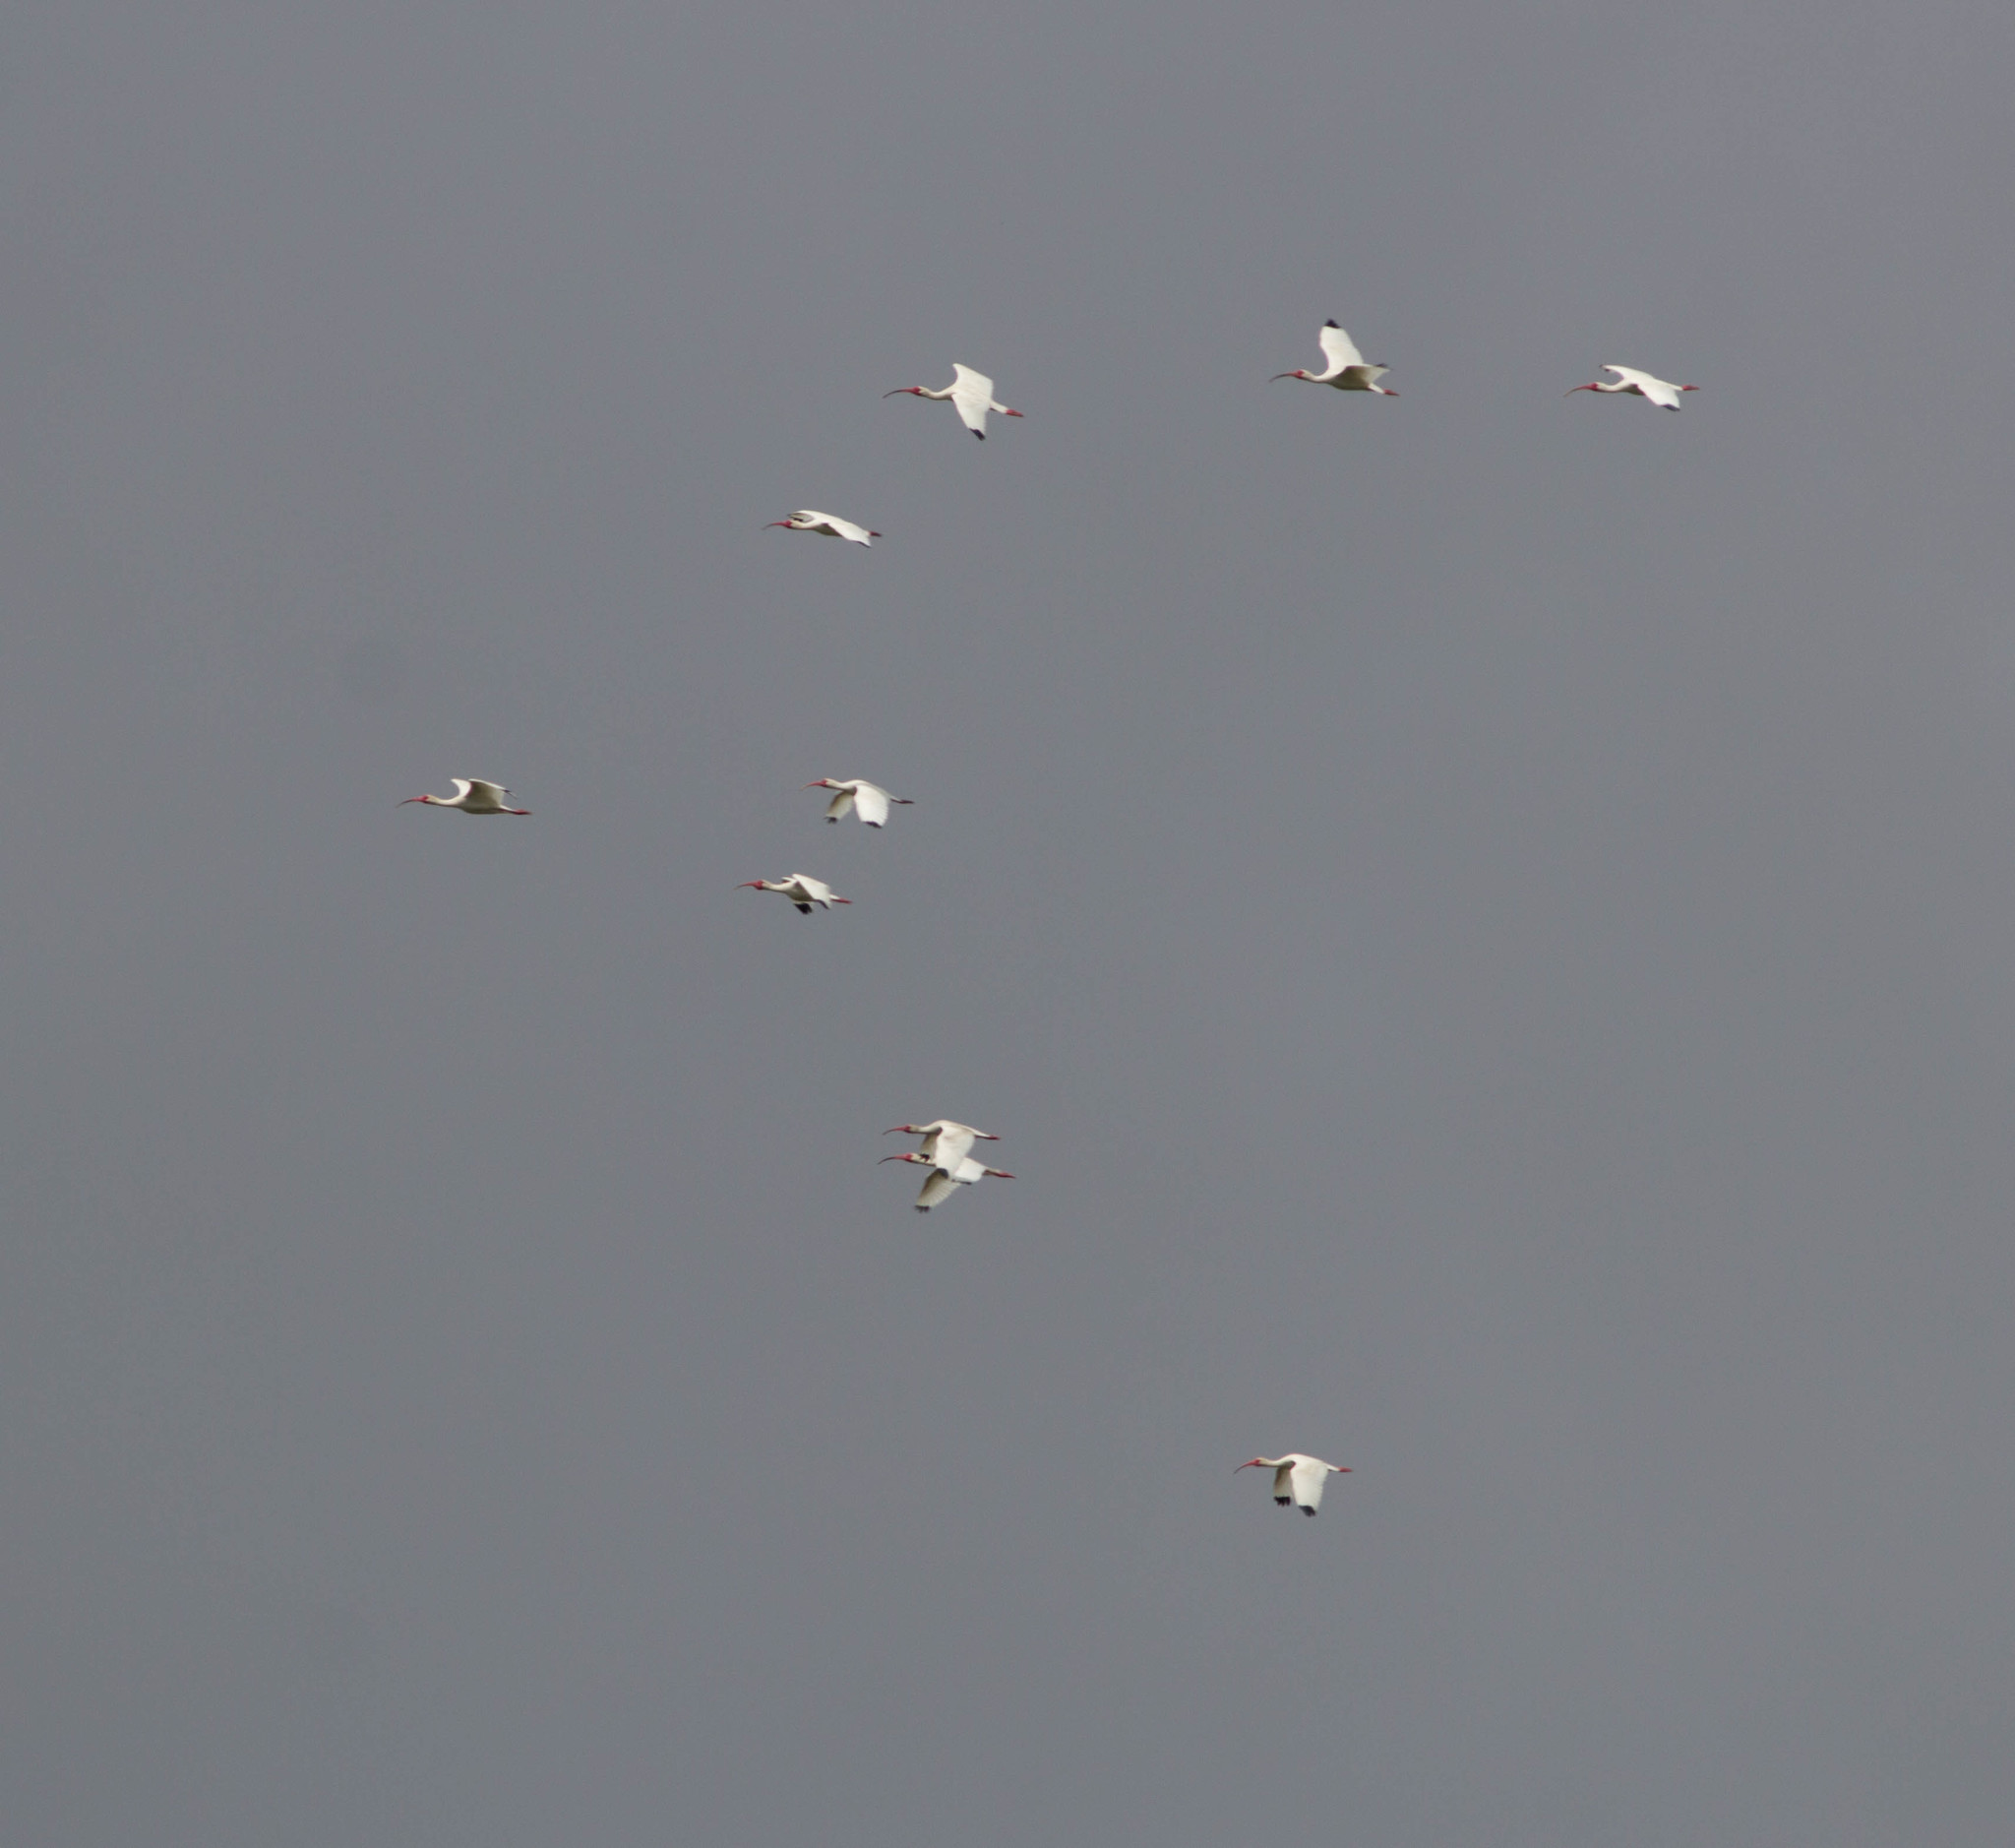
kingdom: Animalia
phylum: Chordata
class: Aves
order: Pelecaniformes
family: Threskiornithidae
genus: Eudocimus
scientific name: Eudocimus albus
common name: White ibis
